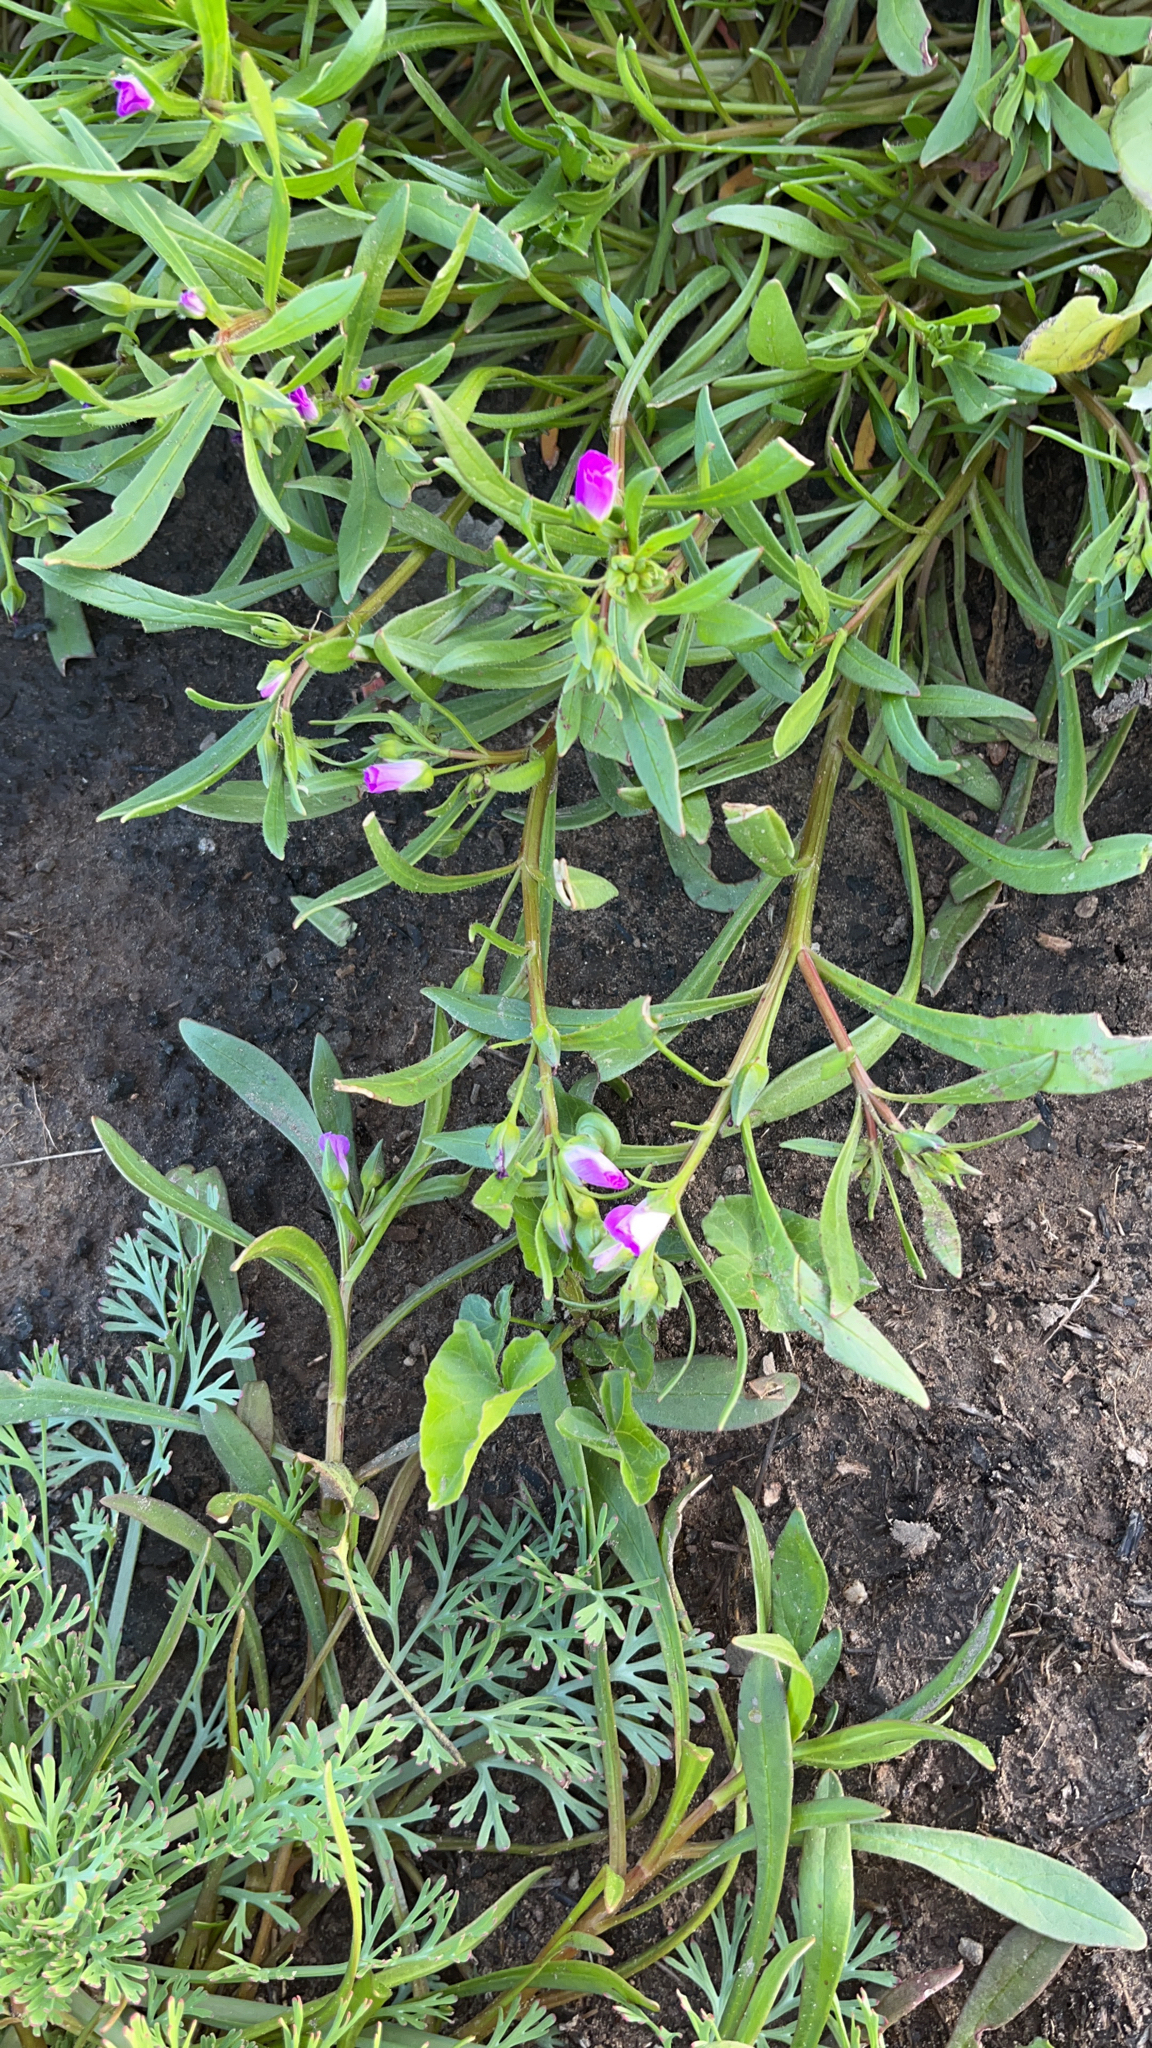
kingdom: Plantae
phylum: Tracheophyta
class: Magnoliopsida
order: Caryophyllales
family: Montiaceae
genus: Calandrinia
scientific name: Calandrinia menziesii
